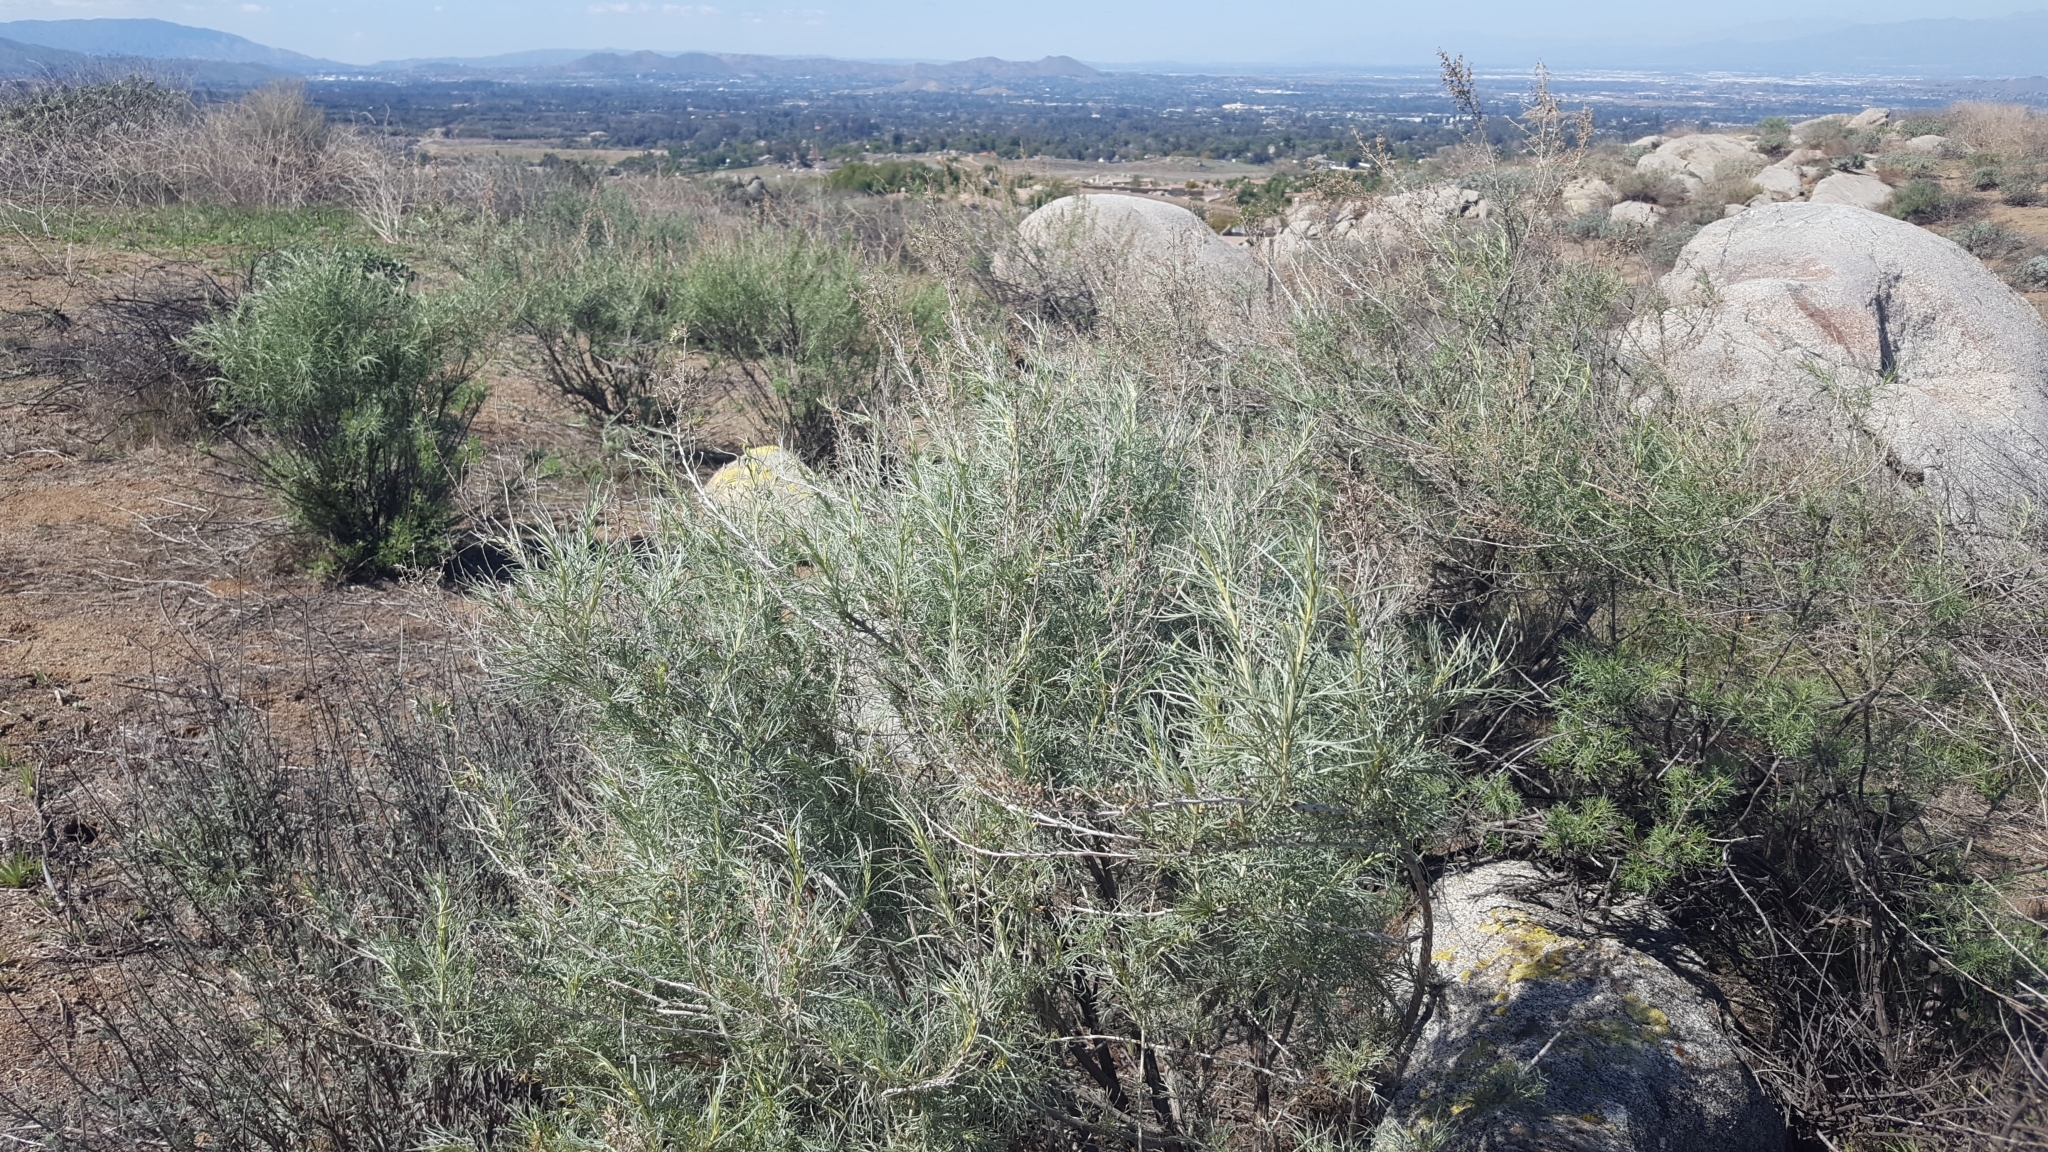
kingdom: Plantae
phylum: Tracheophyta
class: Magnoliopsida
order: Asterales
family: Asteraceae
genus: Artemisia
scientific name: Artemisia californica
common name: California sagebrush
